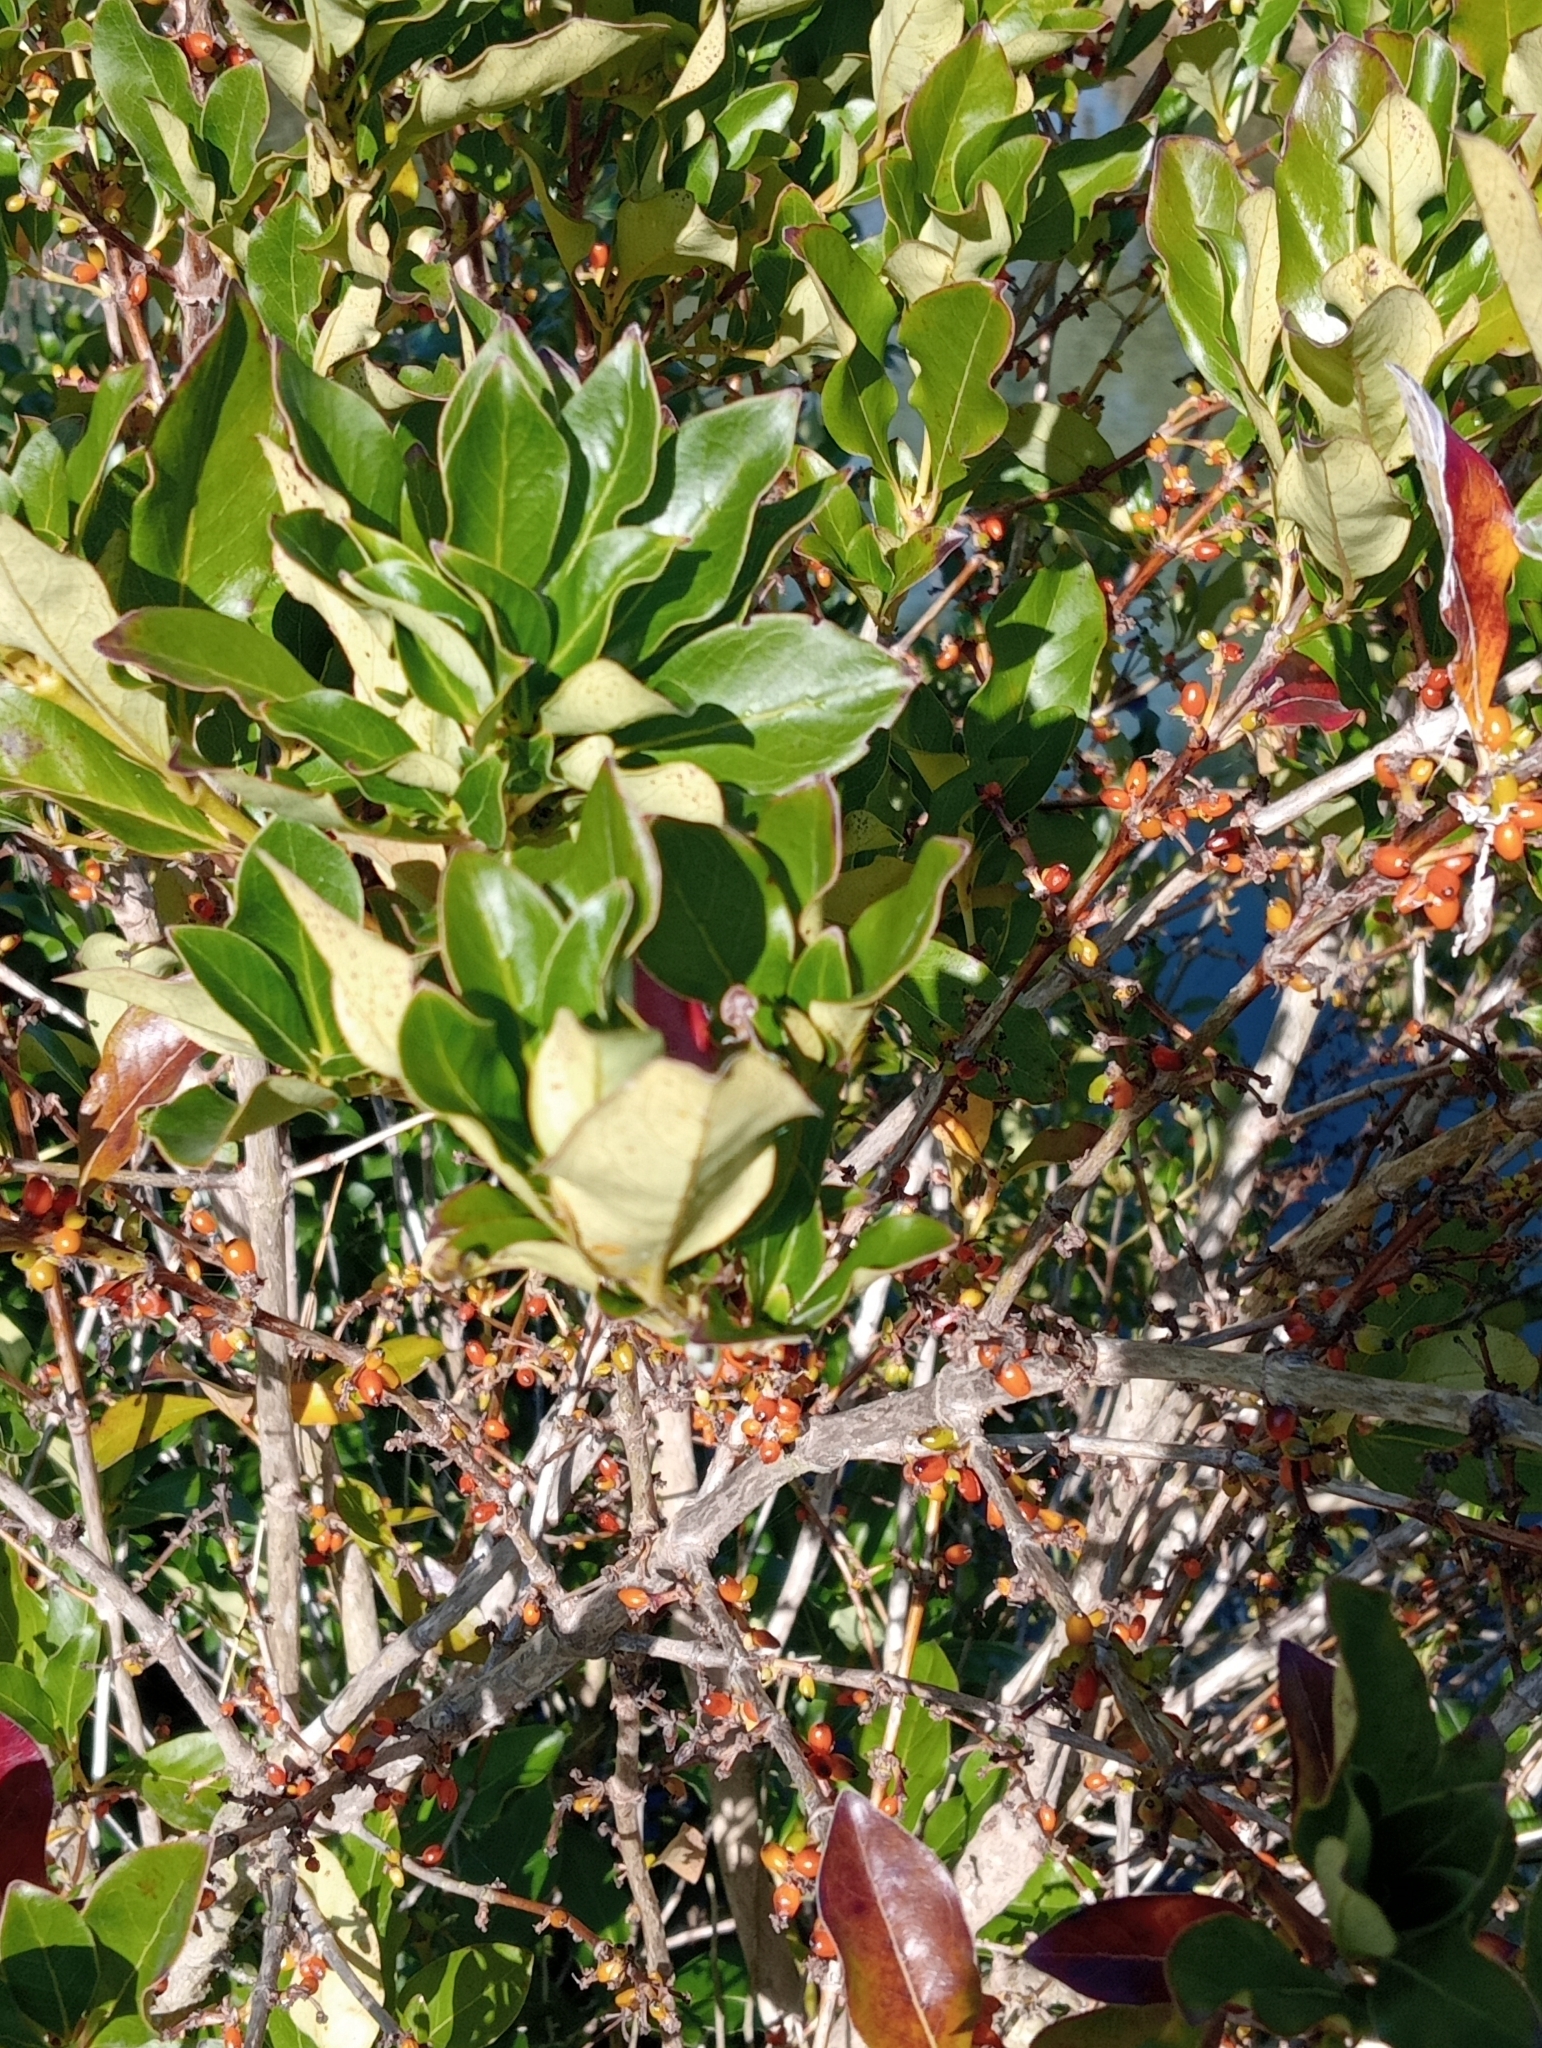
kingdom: Plantae
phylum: Tracheophyta
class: Magnoliopsida
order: Gentianales
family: Rubiaceae
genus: Coprosma
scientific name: Coprosma robusta
